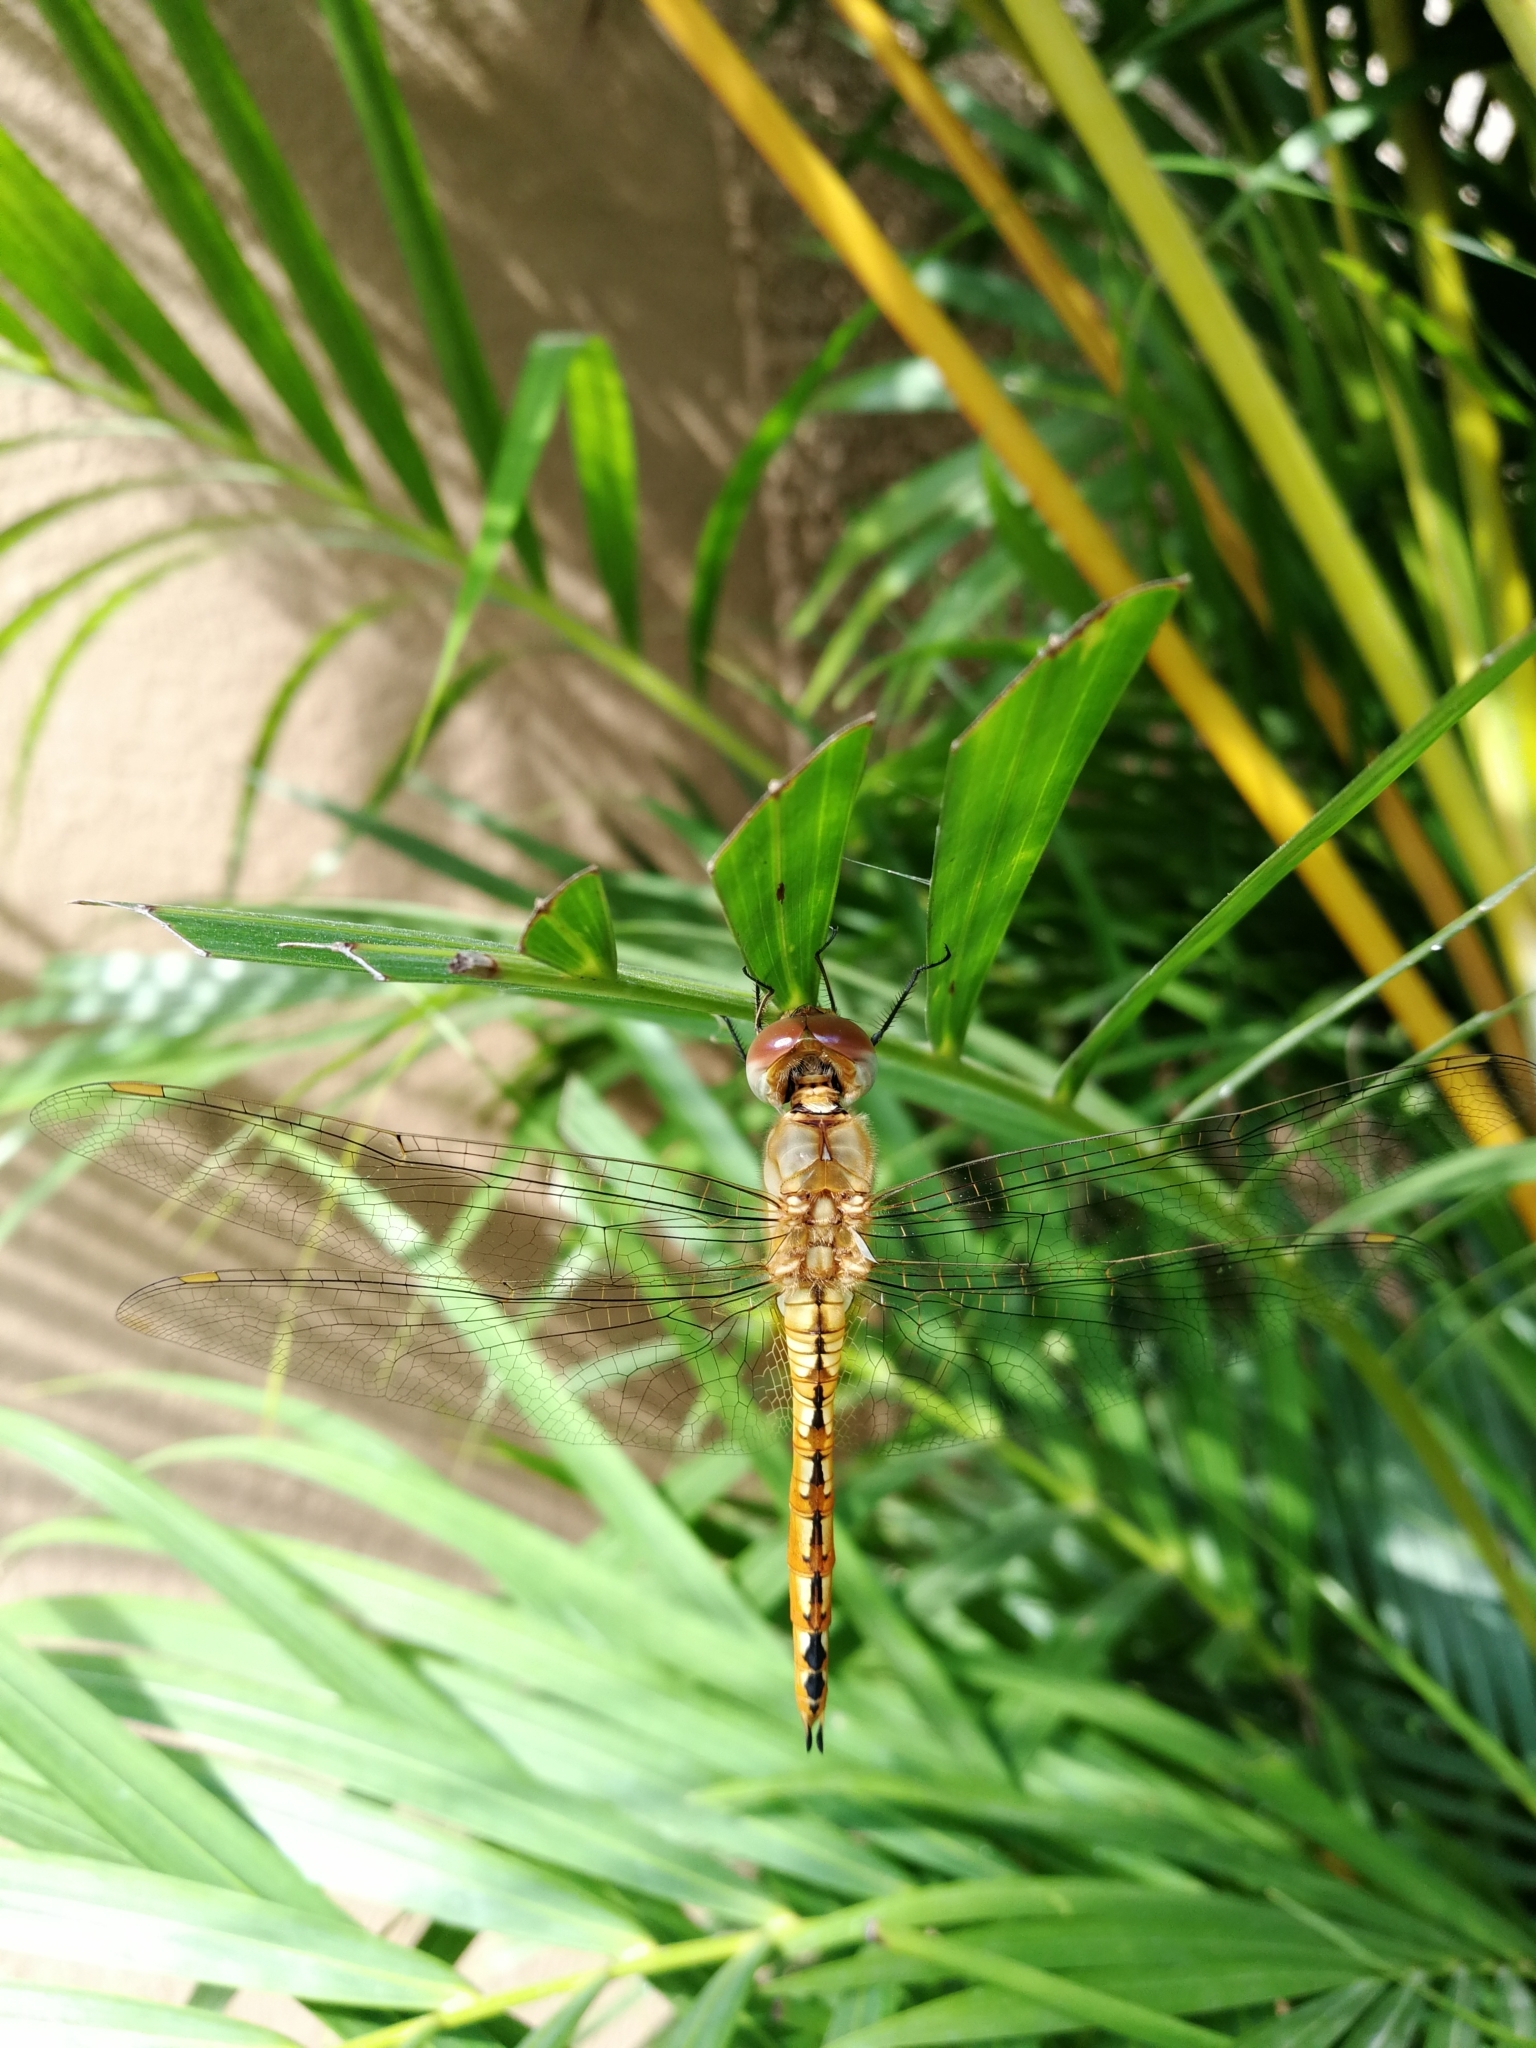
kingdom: Animalia
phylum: Arthropoda
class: Insecta
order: Odonata
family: Libellulidae
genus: Pantala
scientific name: Pantala flavescens
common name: Wandering glider
